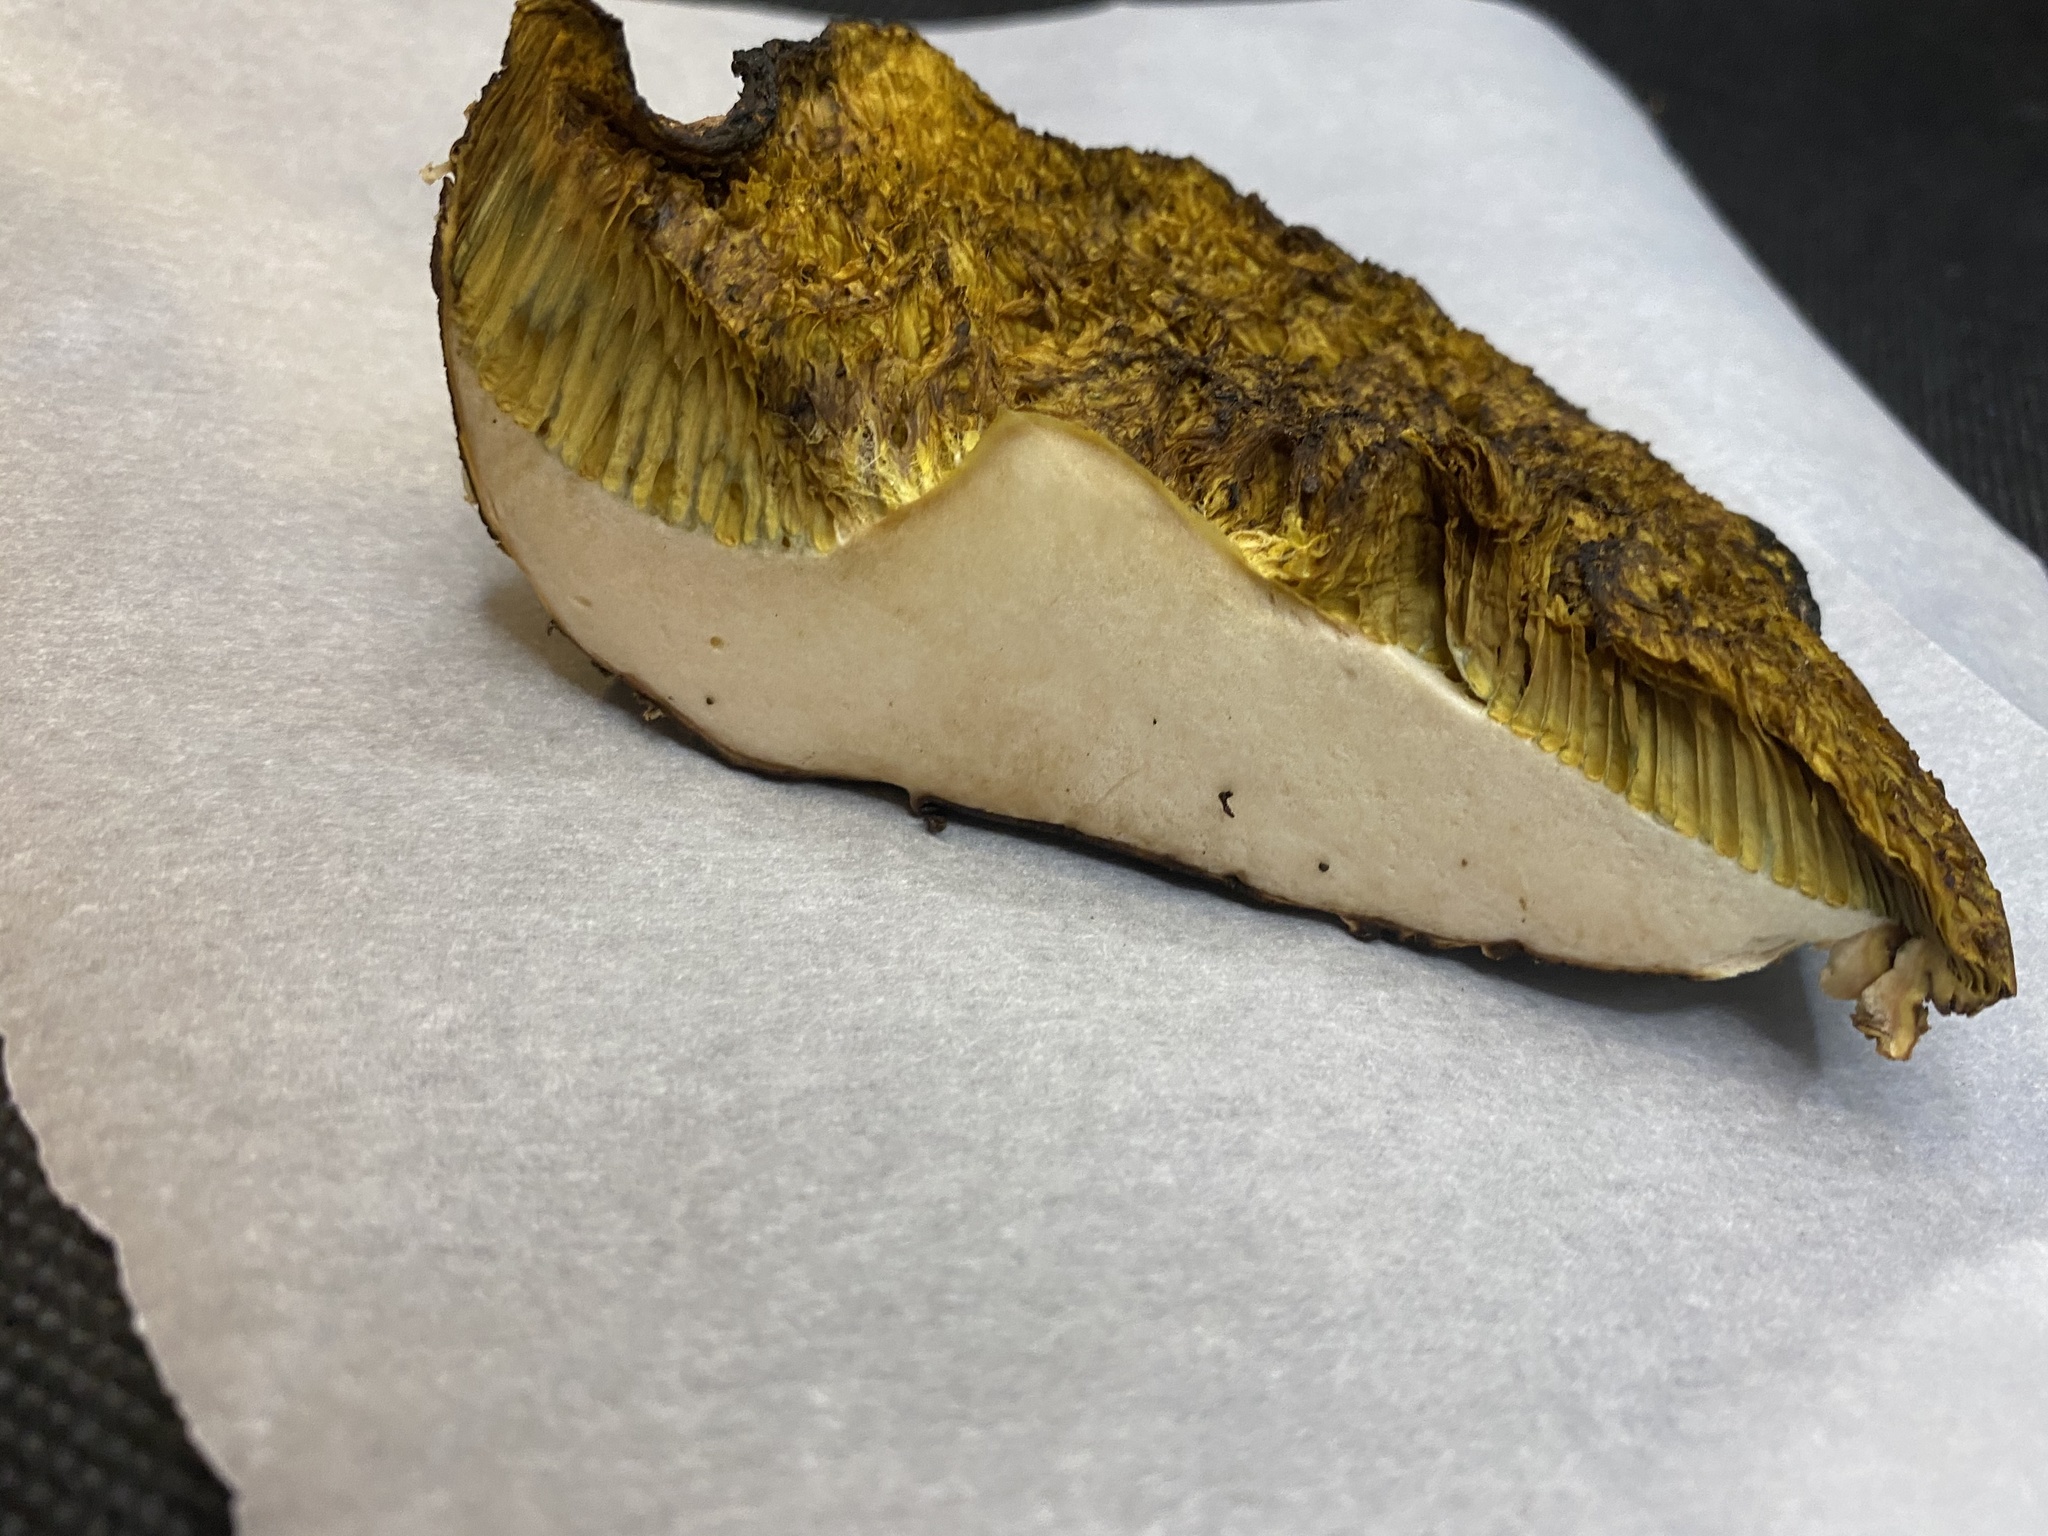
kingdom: Fungi
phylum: Basidiomycota
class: Agaricomycetes
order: Boletales
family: Boletaceae
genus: Xerocomus
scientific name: Xerocomus subtomentosus
